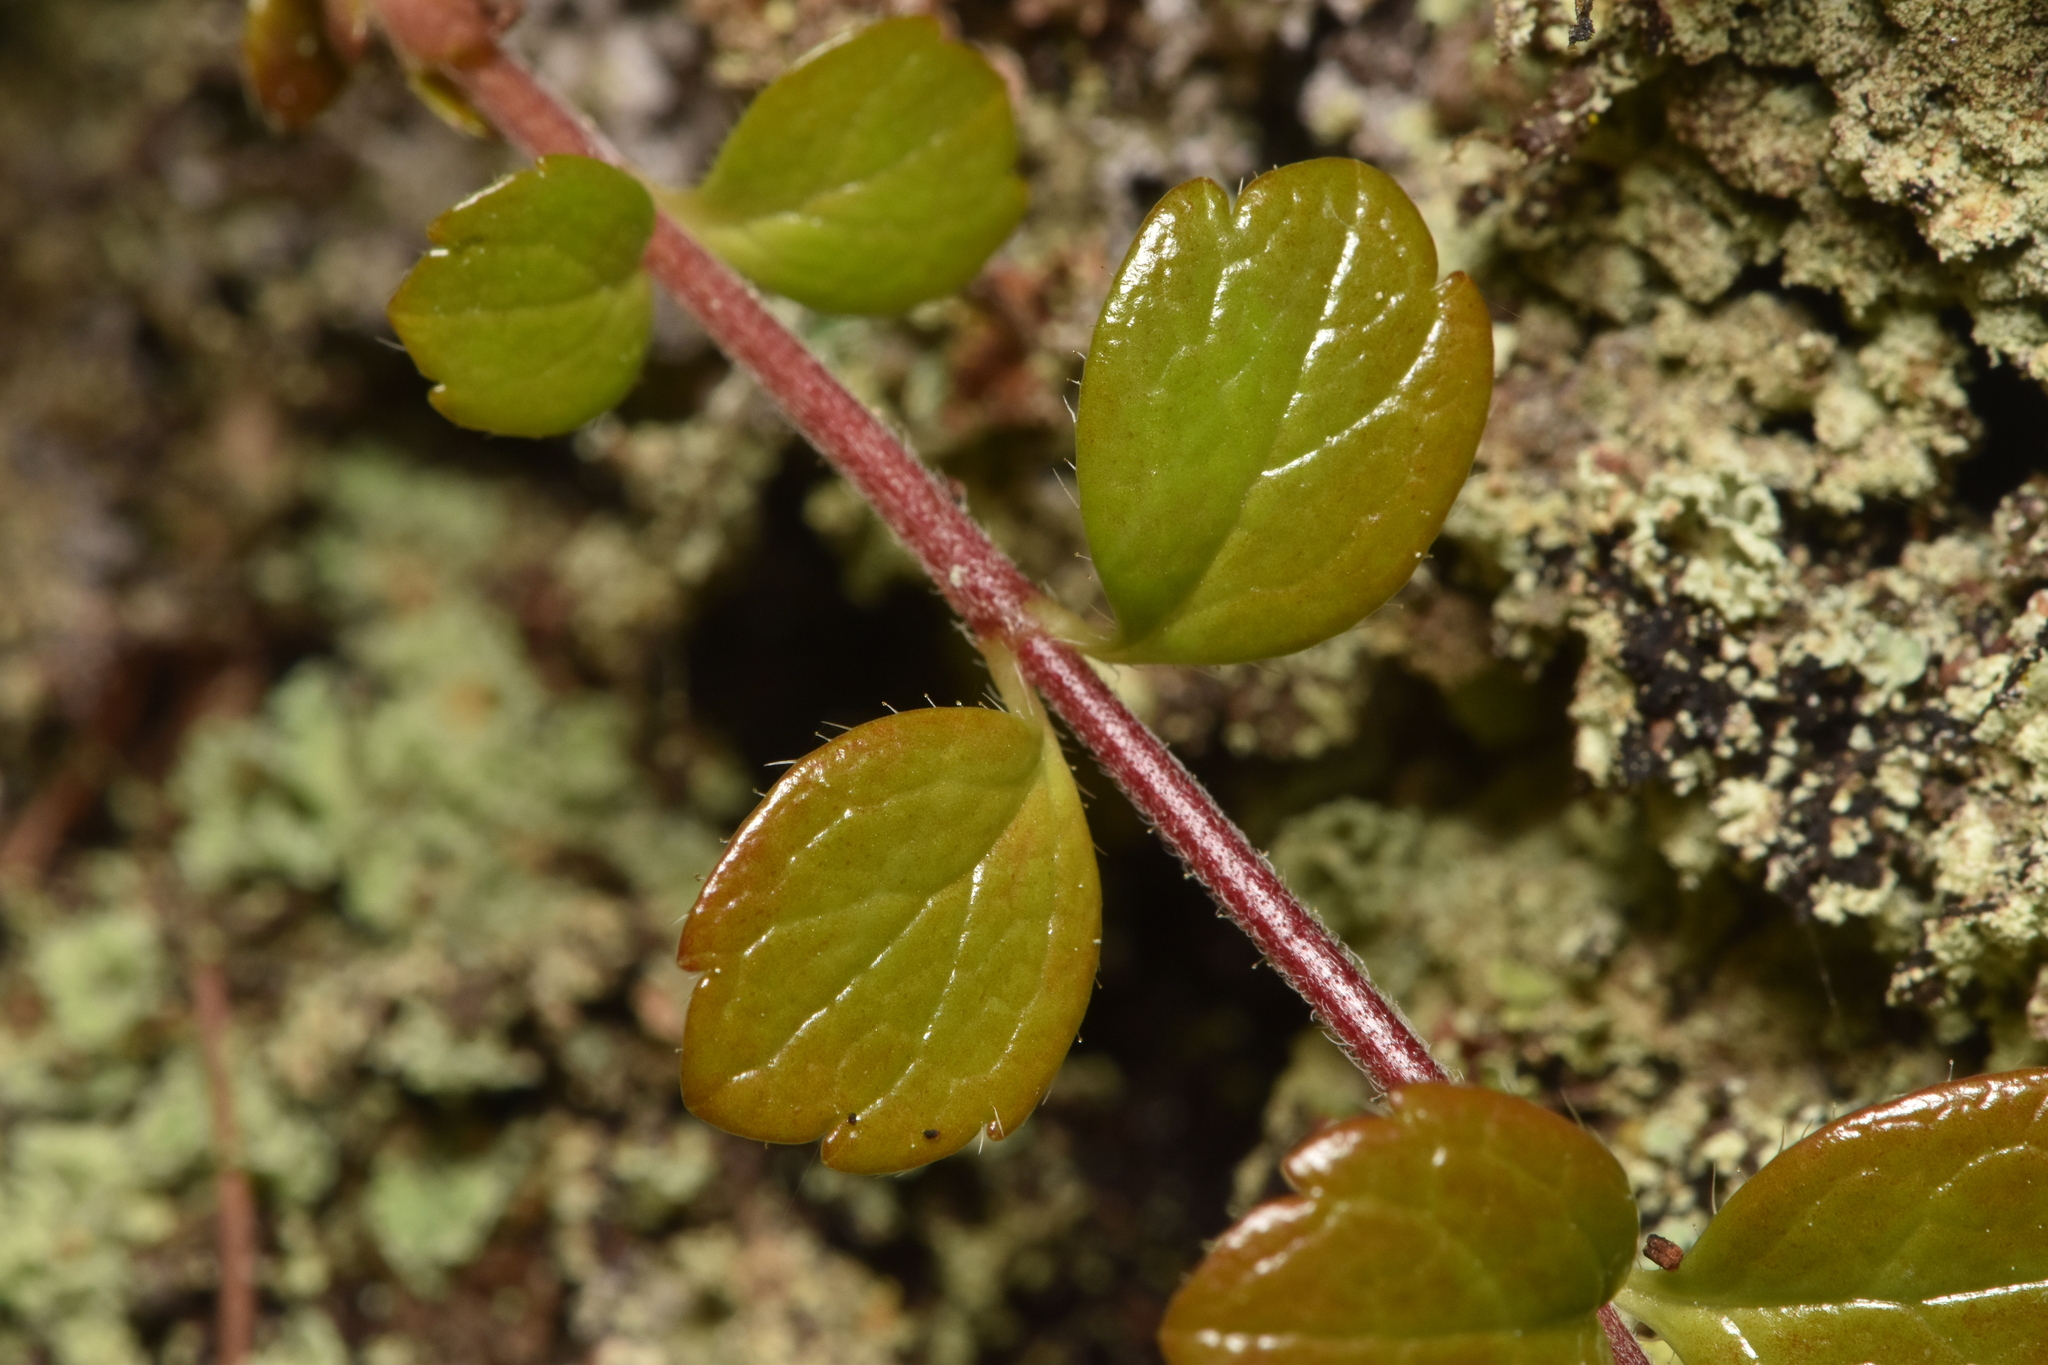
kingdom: Plantae
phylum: Tracheophyta
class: Magnoliopsida
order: Dipsacales
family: Caprifoliaceae
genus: Linnaea
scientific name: Linnaea borealis
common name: Twinflower
